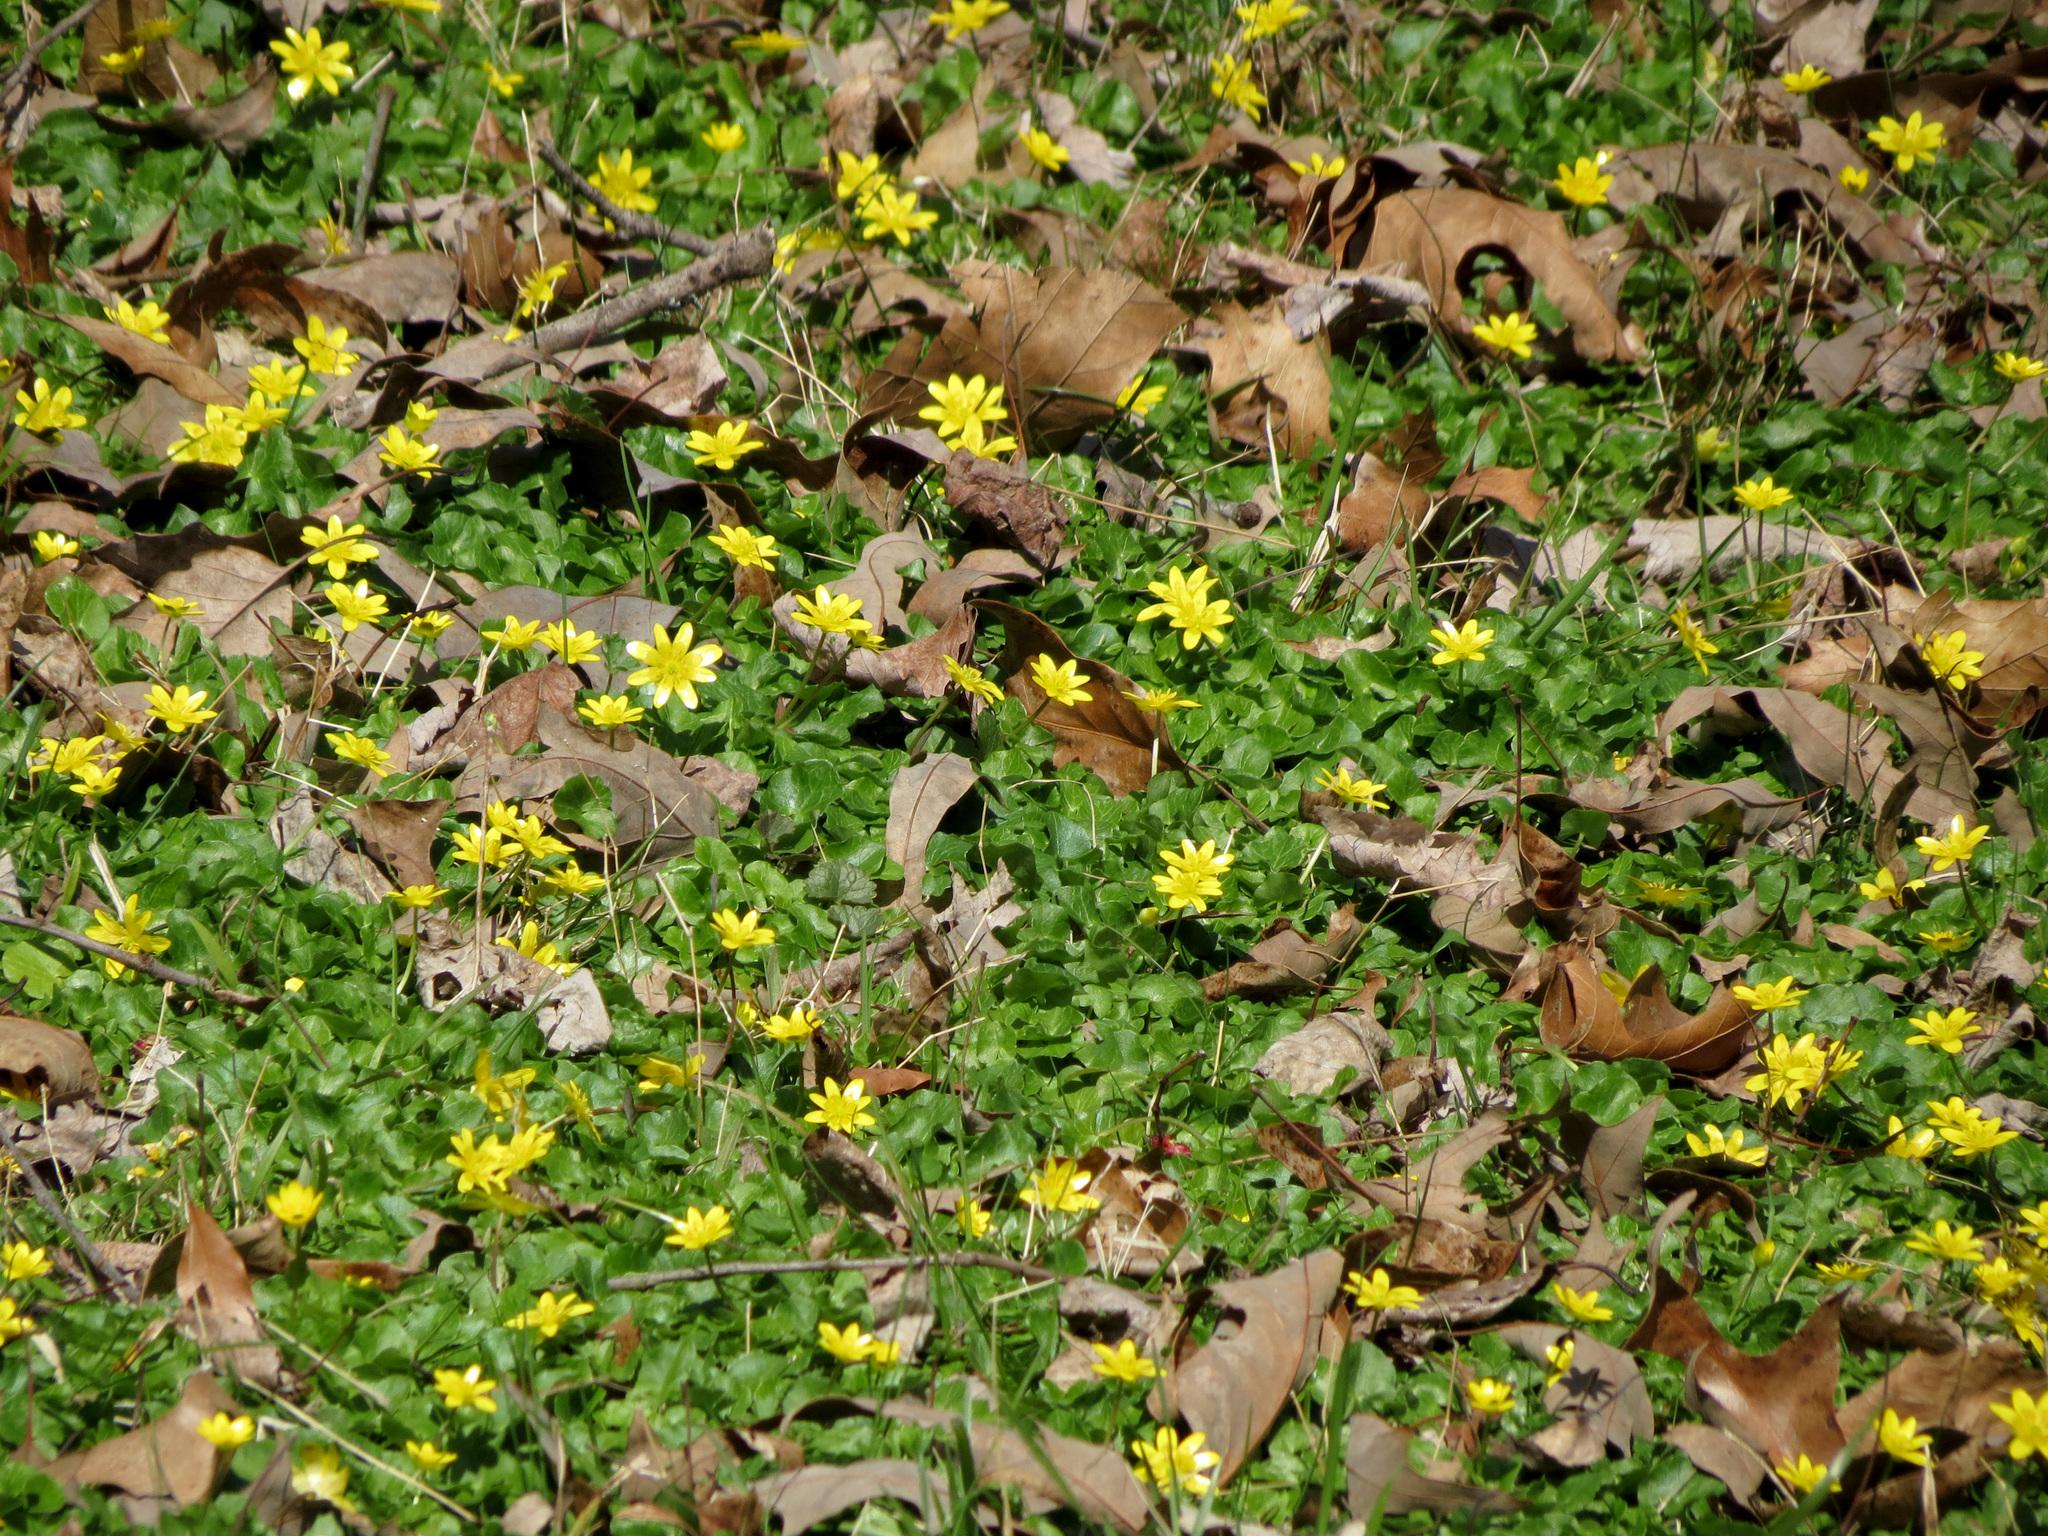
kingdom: Plantae
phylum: Tracheophyta
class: Magnoliopsida
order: Ranunculales
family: Ranunculaceae
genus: Ficaria
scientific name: Ficaria verna
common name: Lesser celandine
